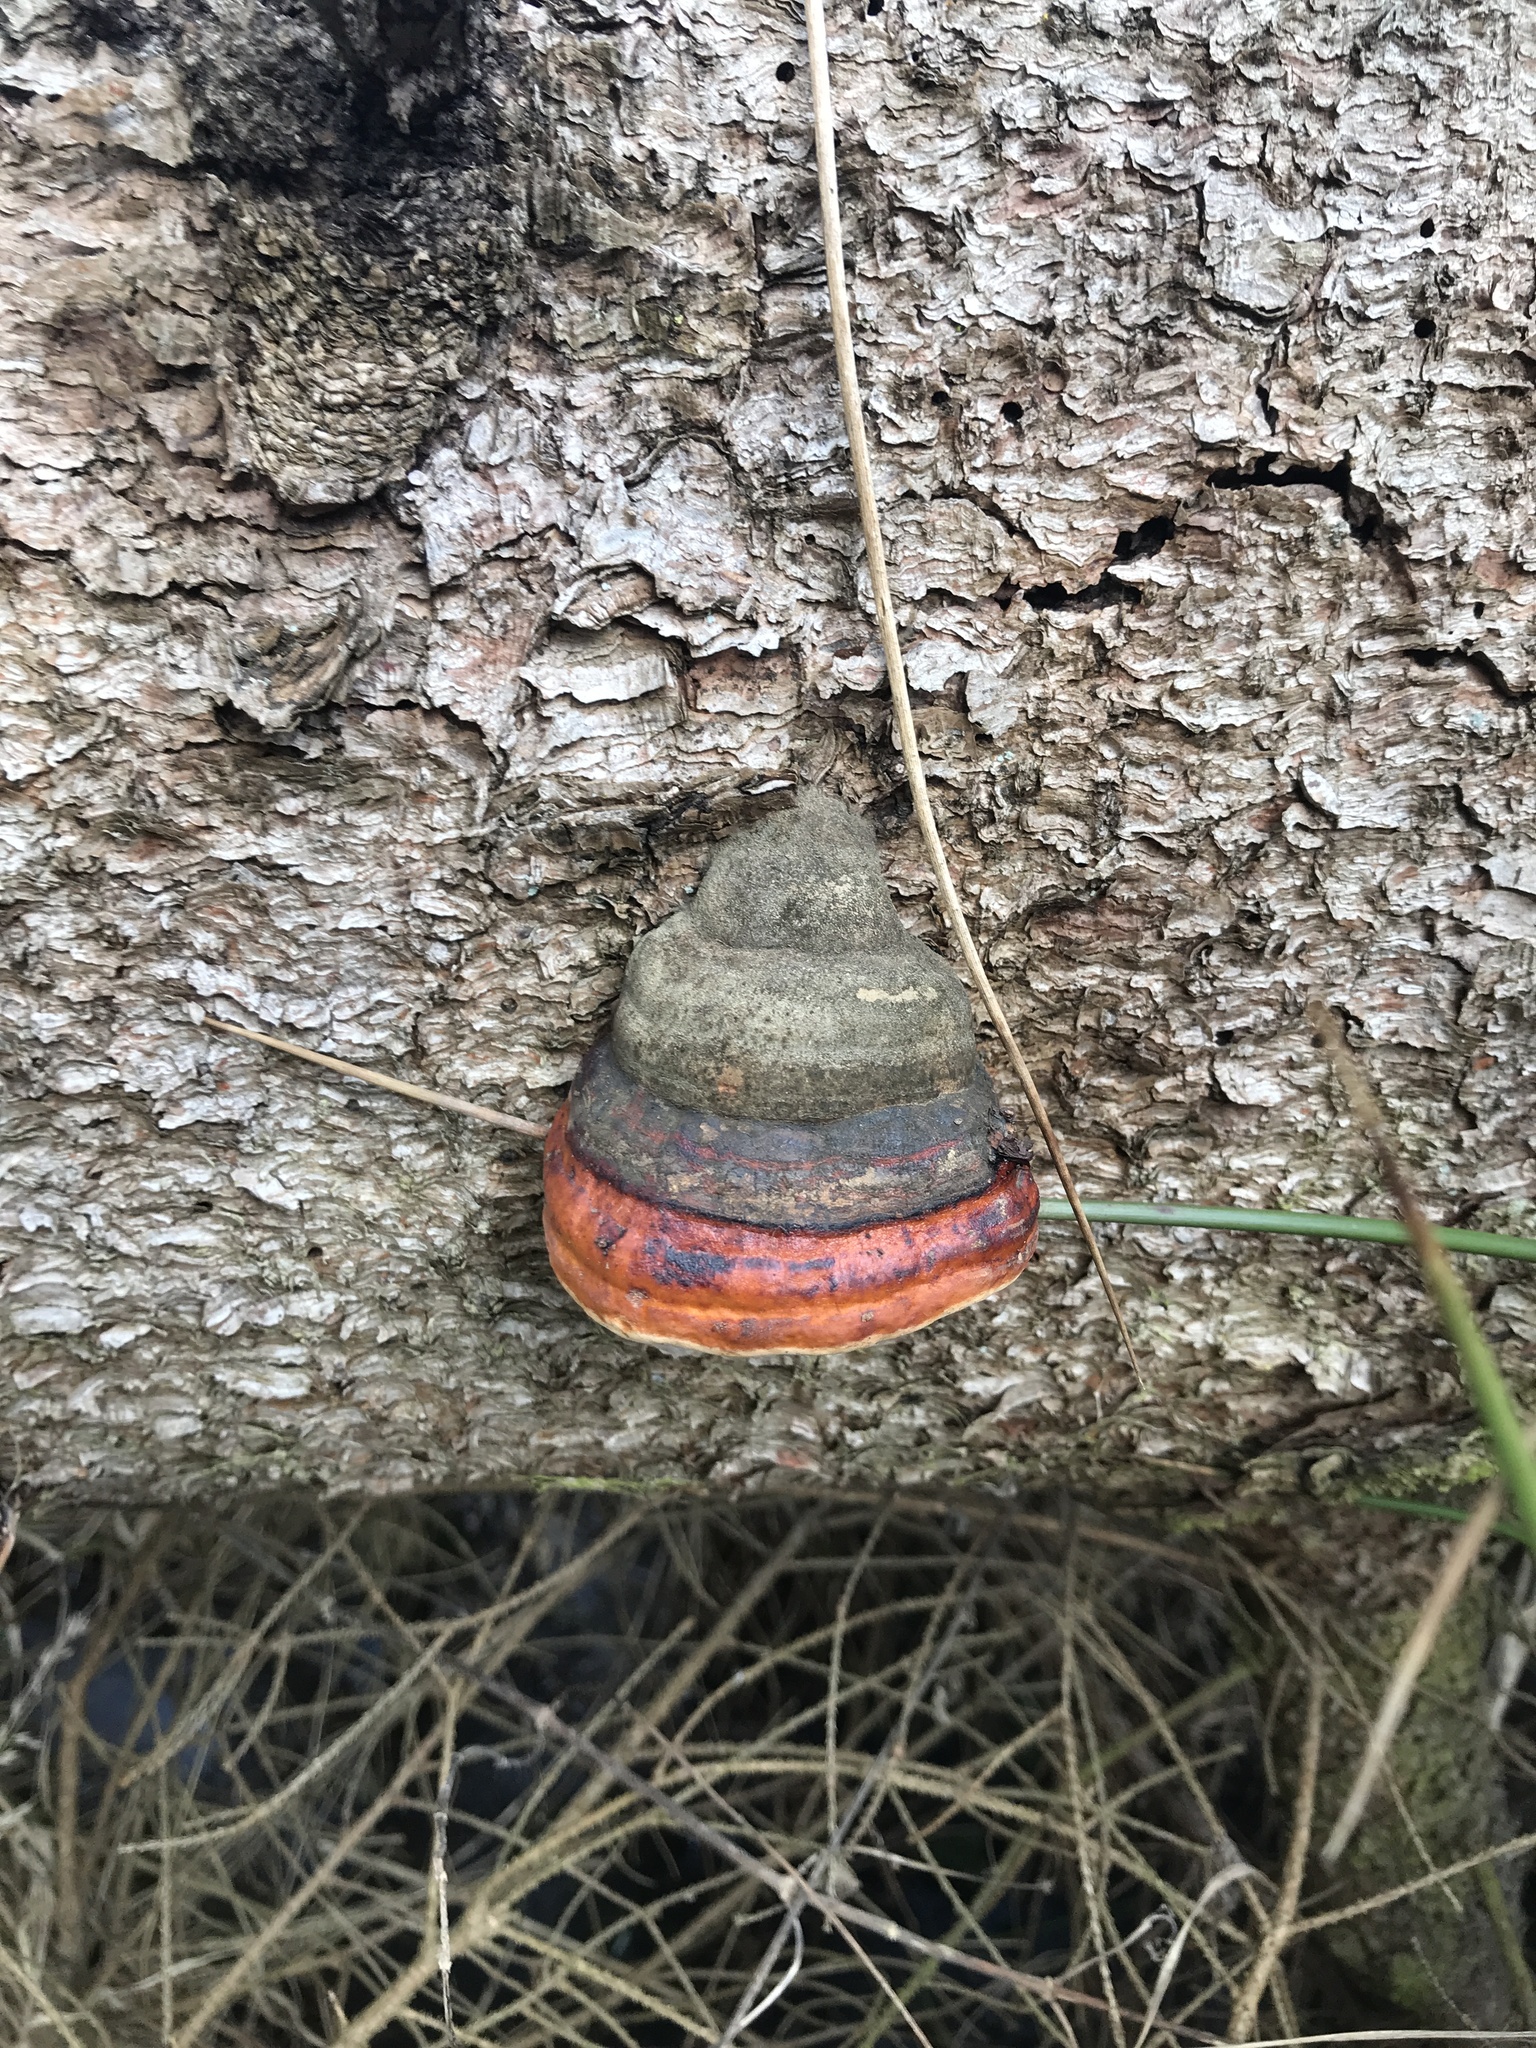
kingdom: Fungi
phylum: Basidiomycota
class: Agaricomycetes
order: Polyporales
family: Fomitopsidaceae
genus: Fomitopsis
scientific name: Fomitopsis pinicola
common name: Red-belted bracket
